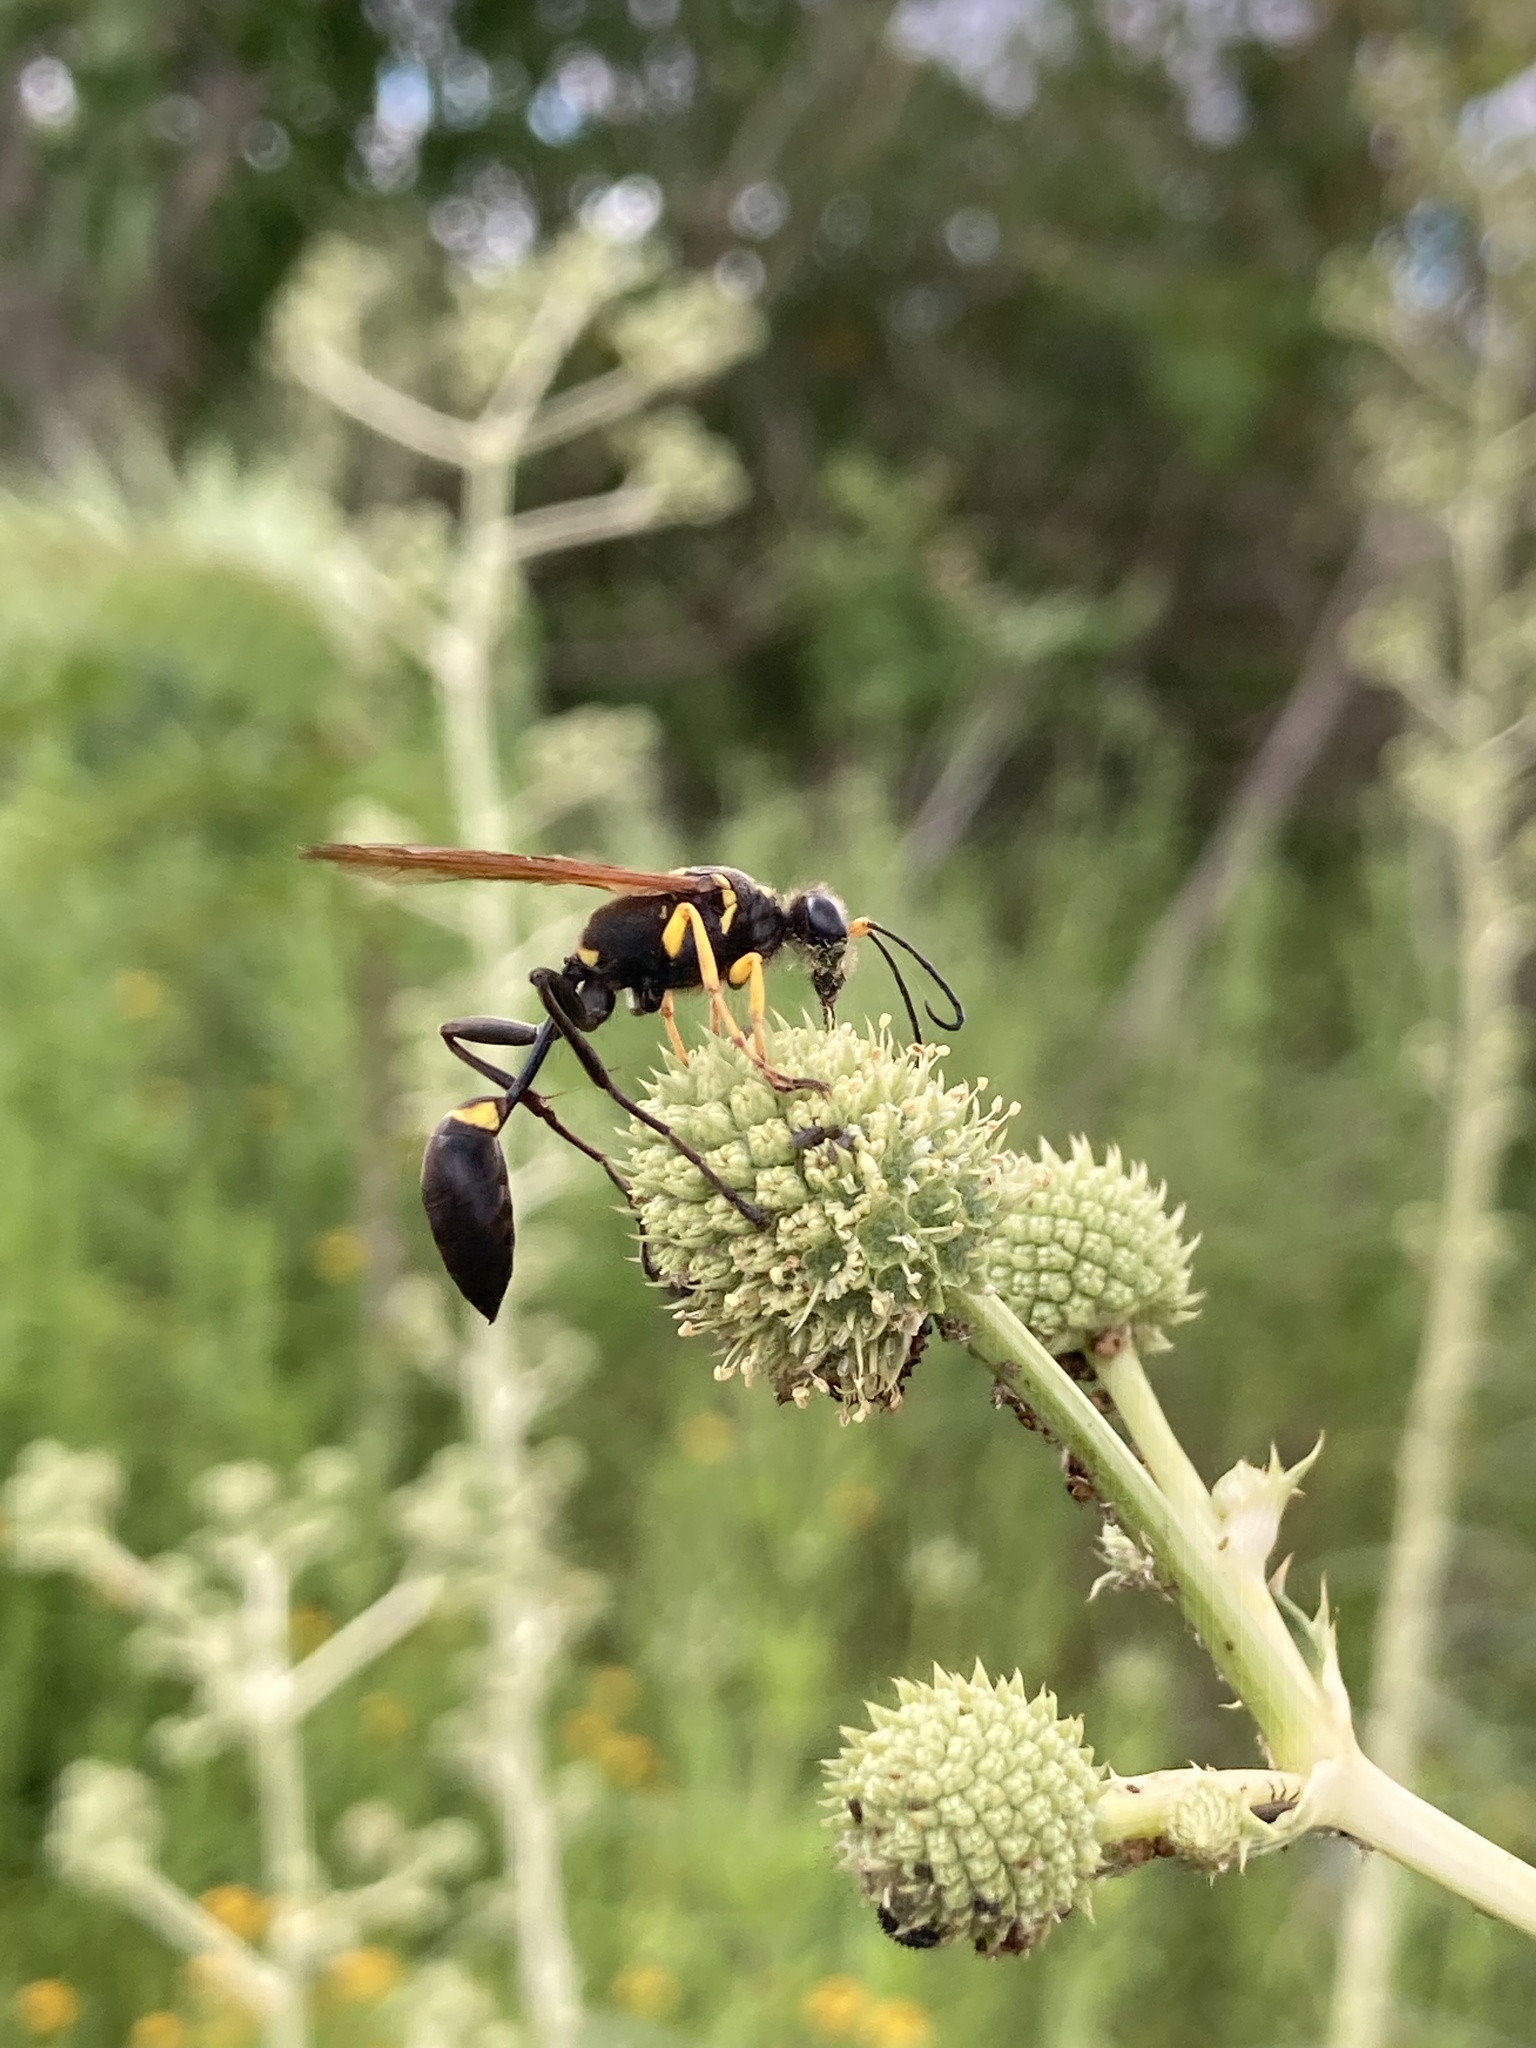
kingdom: Animalia
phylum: Arthropoda
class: Insecta
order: Hymenoptera
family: Sphecidae
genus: Sceliphron
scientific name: Sceliphron asiaticum
